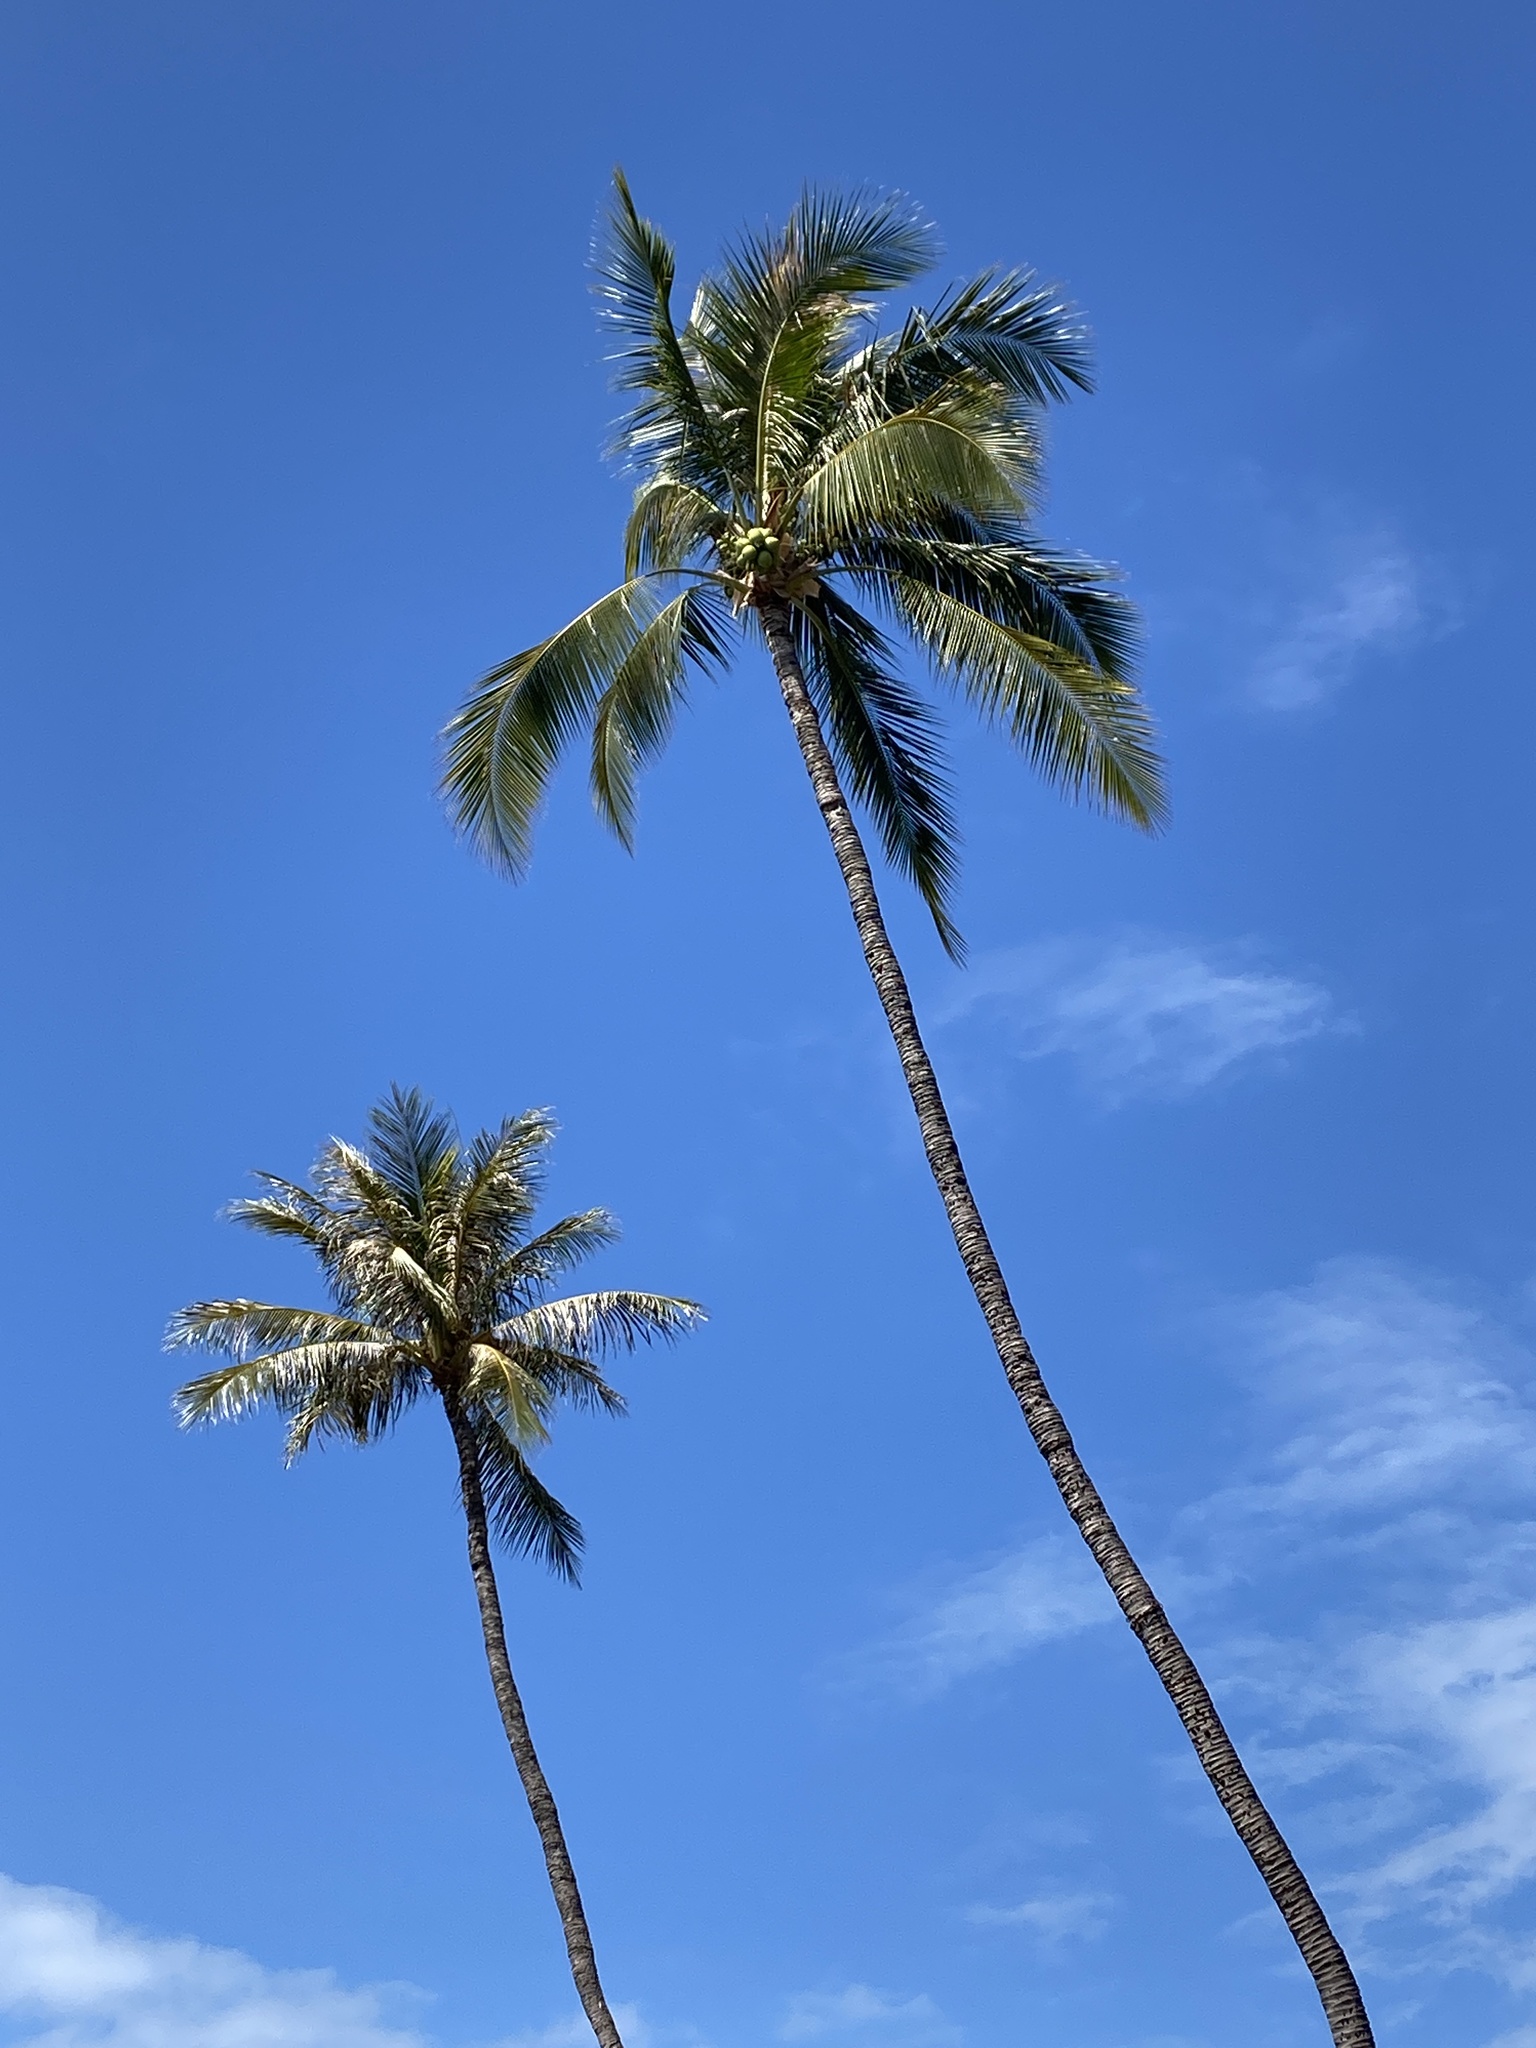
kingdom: Plantae
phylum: Tracheophyta
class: Liliopsida
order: Arecales
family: Arecaceae
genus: Cocos
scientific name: Cocos nucifera
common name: Coconut palm
